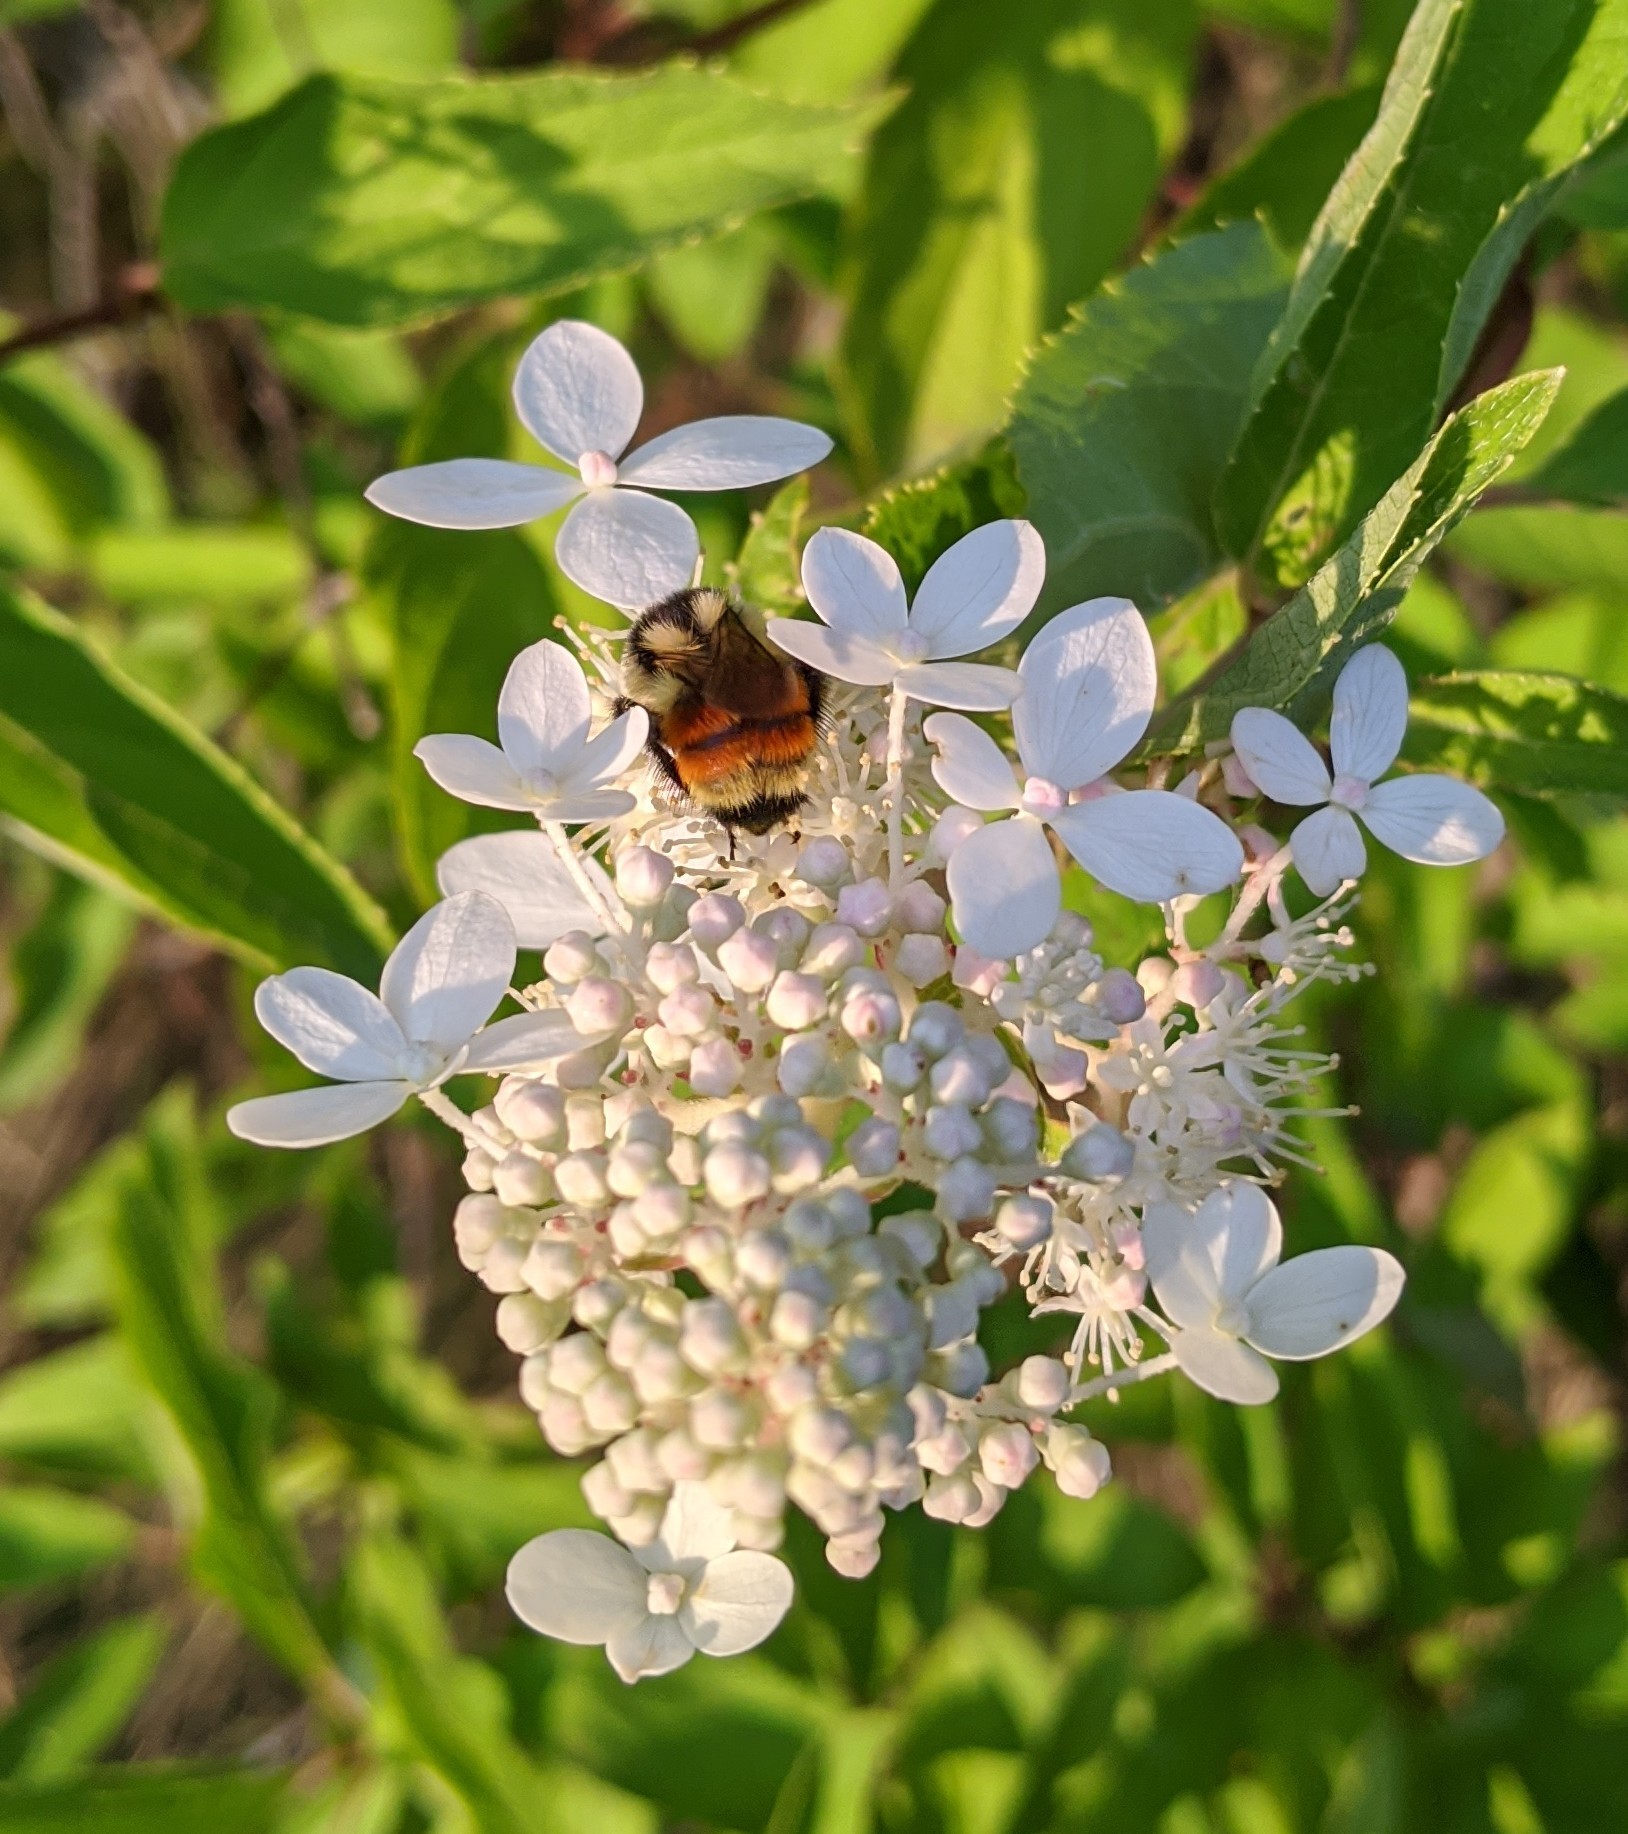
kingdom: Animalia
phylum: Arthropoda
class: Insecta
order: Hymenoptera
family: Apidae
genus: Bombus
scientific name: Bombus ternarius
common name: Tri-colored bumble bee
